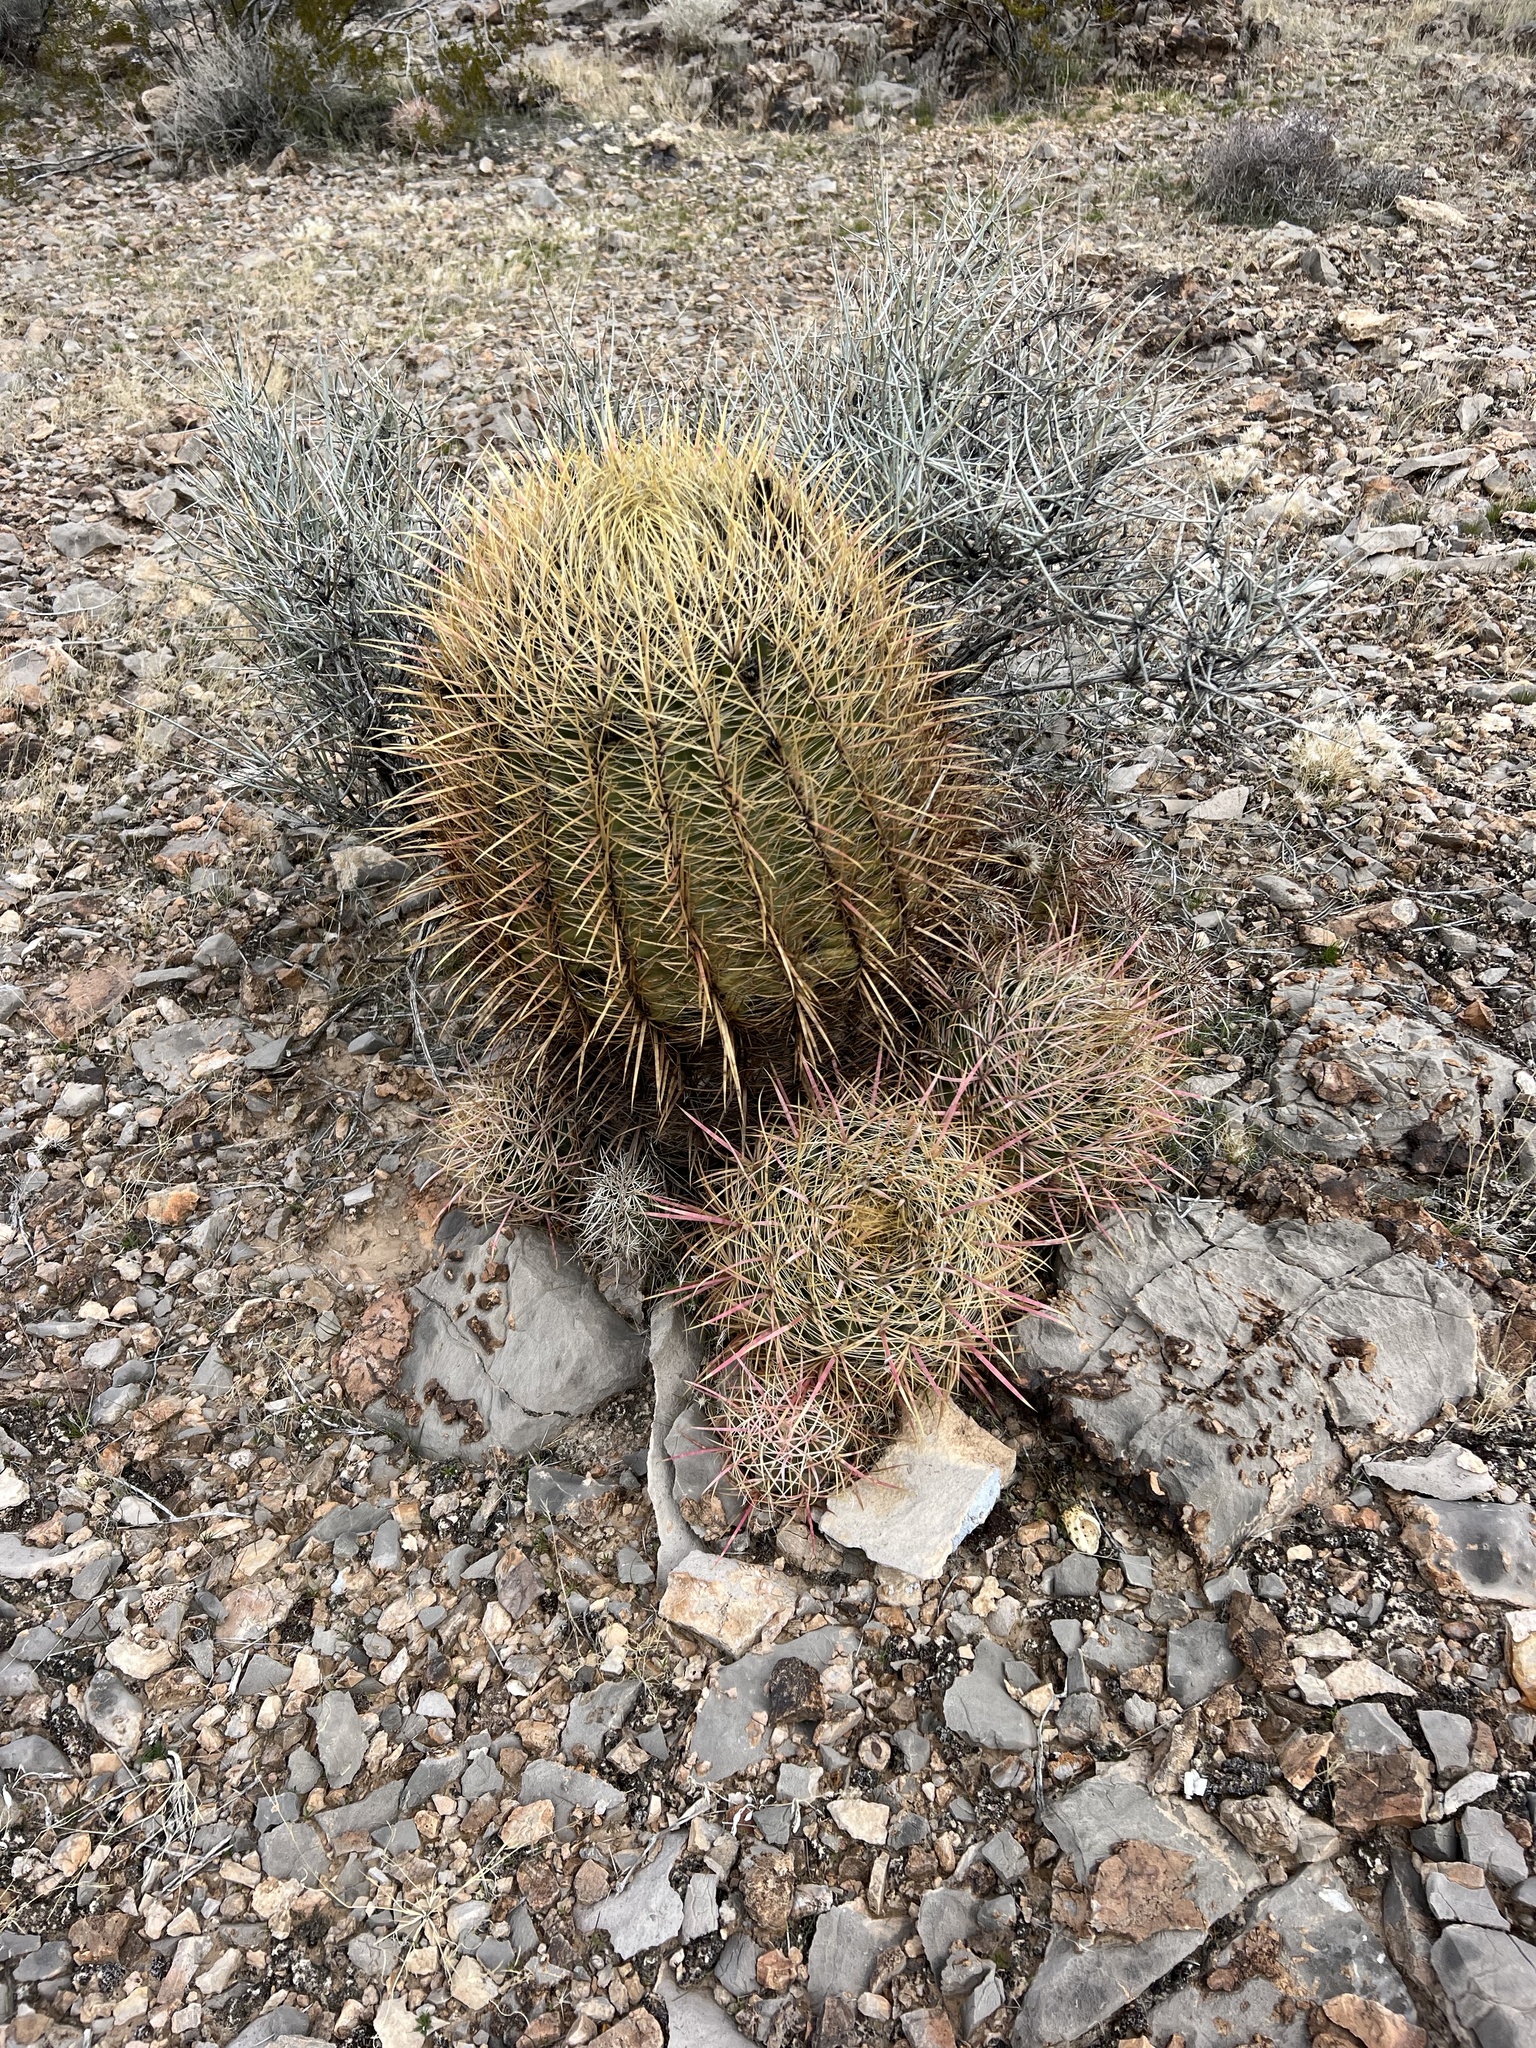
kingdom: Plantae
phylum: Tracheophyta
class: Magnoliopsida
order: Caryophyllales
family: Cactaceae
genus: Ferocactus
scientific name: Ferocactus cylindraceus
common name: California barrel cactus
